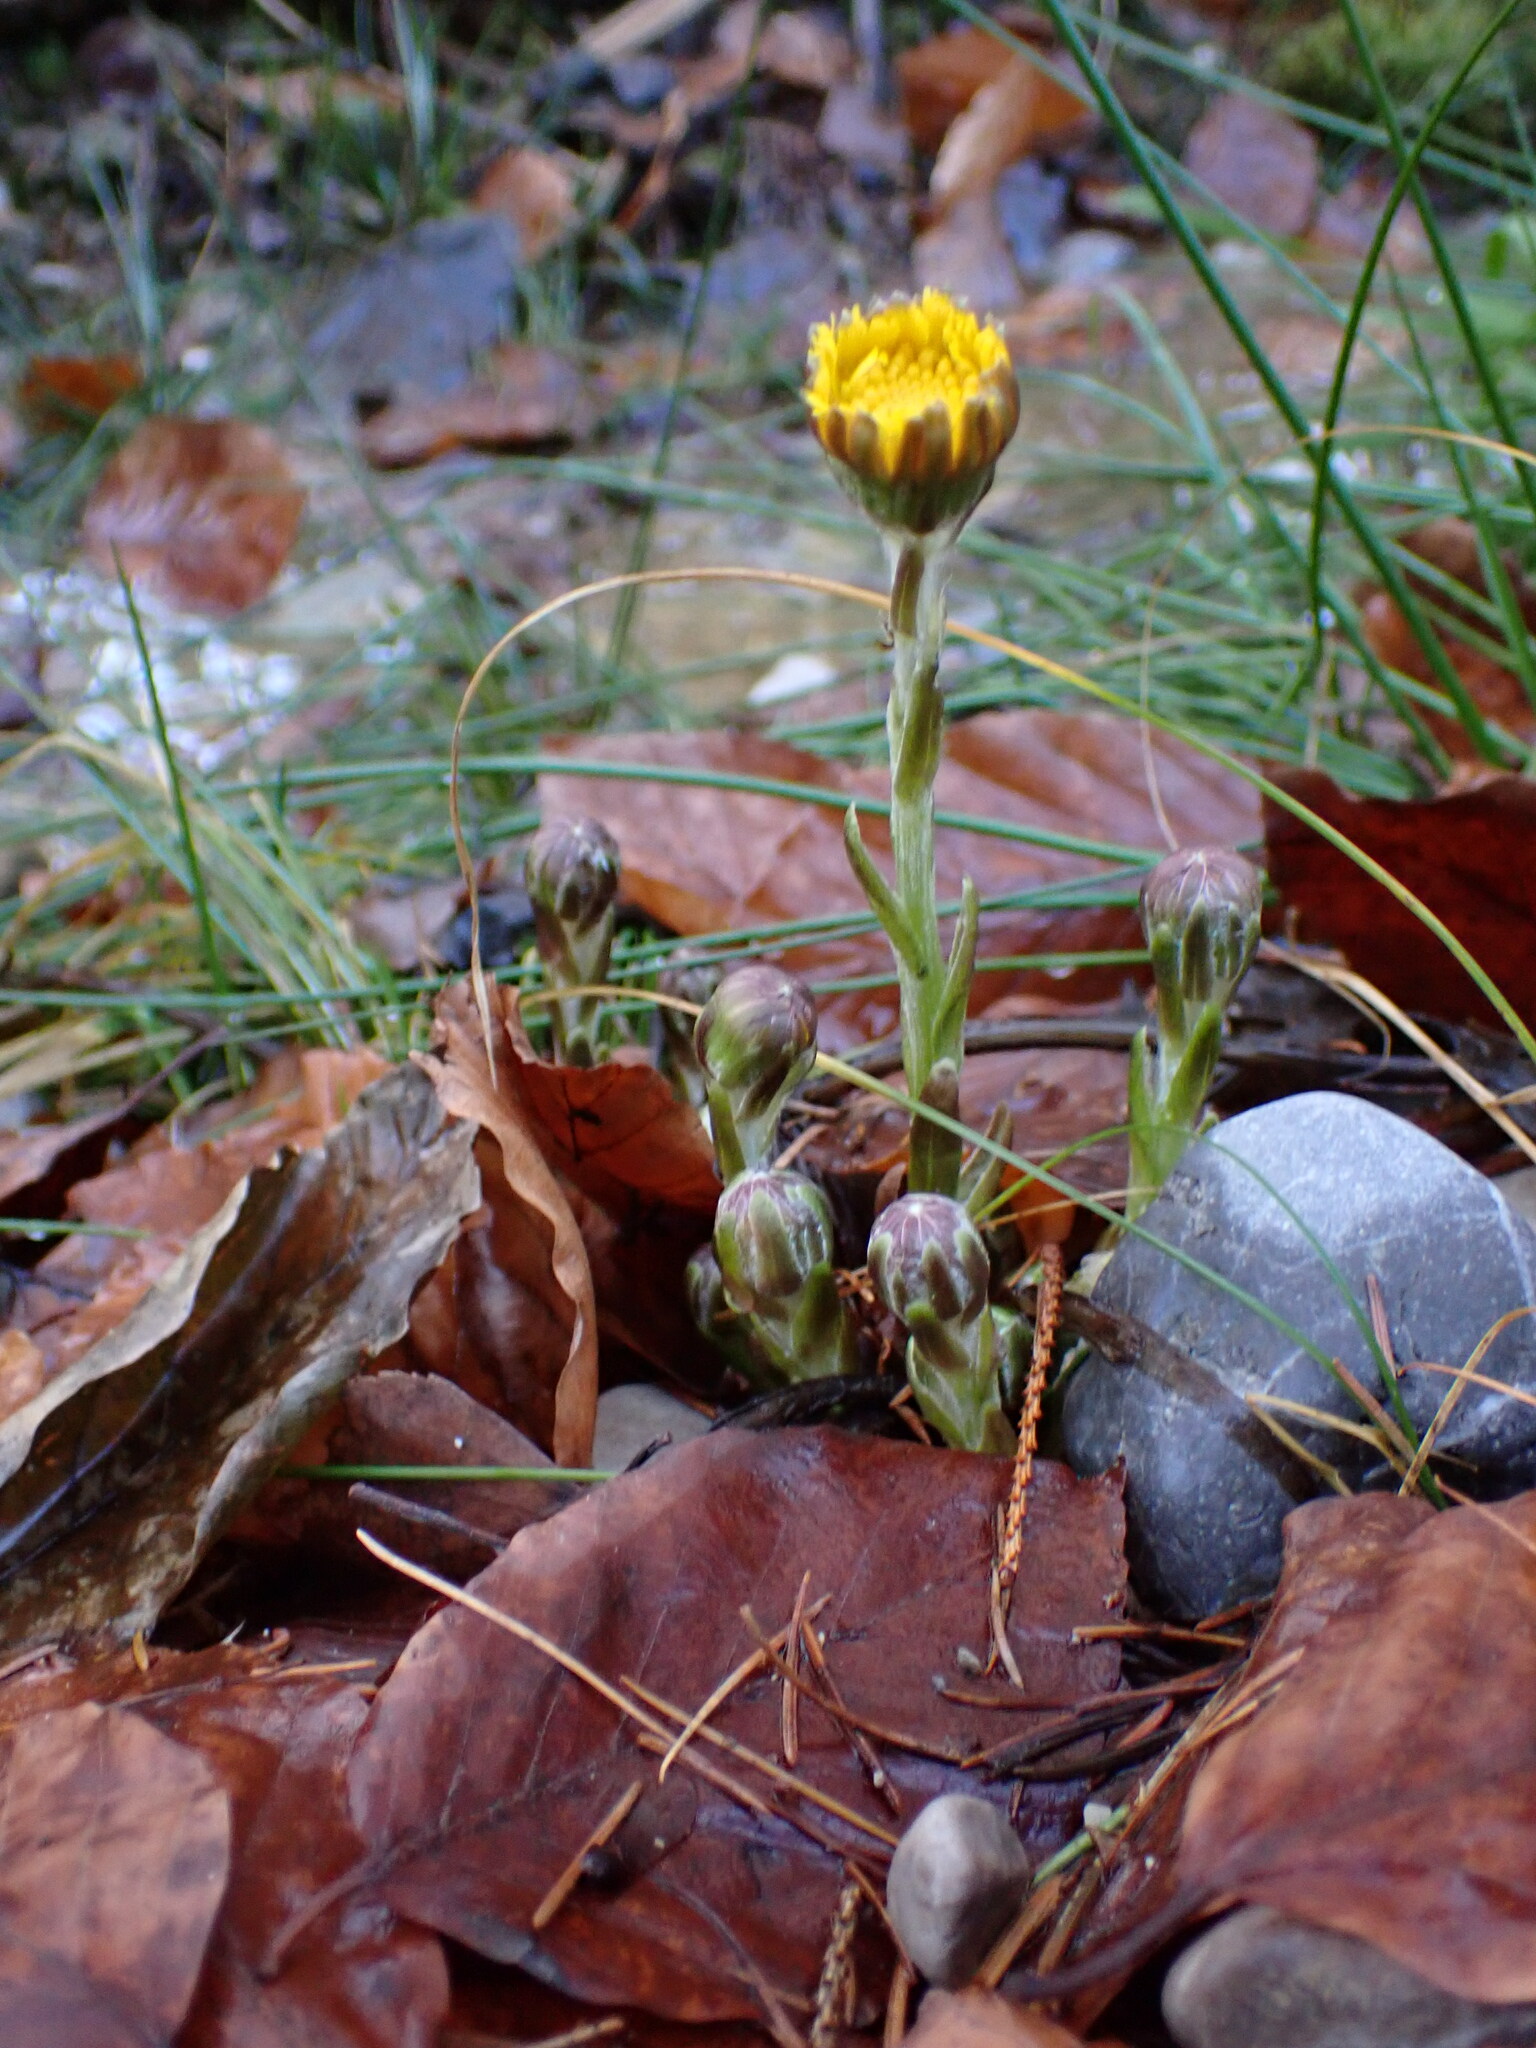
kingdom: Plantae
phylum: Tracheophyta
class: Magnoliopsida
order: Asterales
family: Asteraceae
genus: Tussilago
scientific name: Tussilago farfara
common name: Coltsfoot
